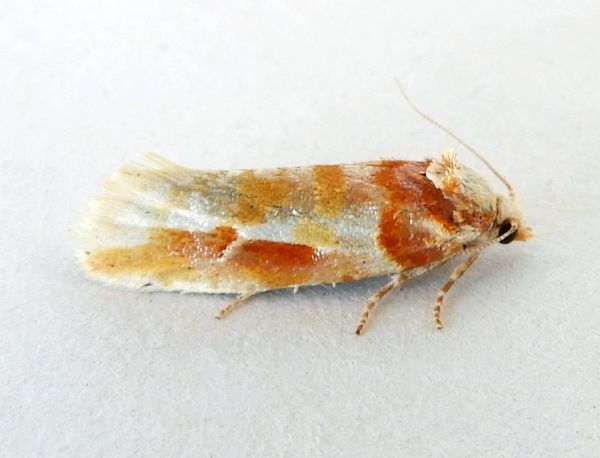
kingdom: Animalia
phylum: Arthropoda
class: Insecta
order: Lepidoptera
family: Tortricidae
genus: Eupinivora
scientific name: Eupinivora ponderosae
